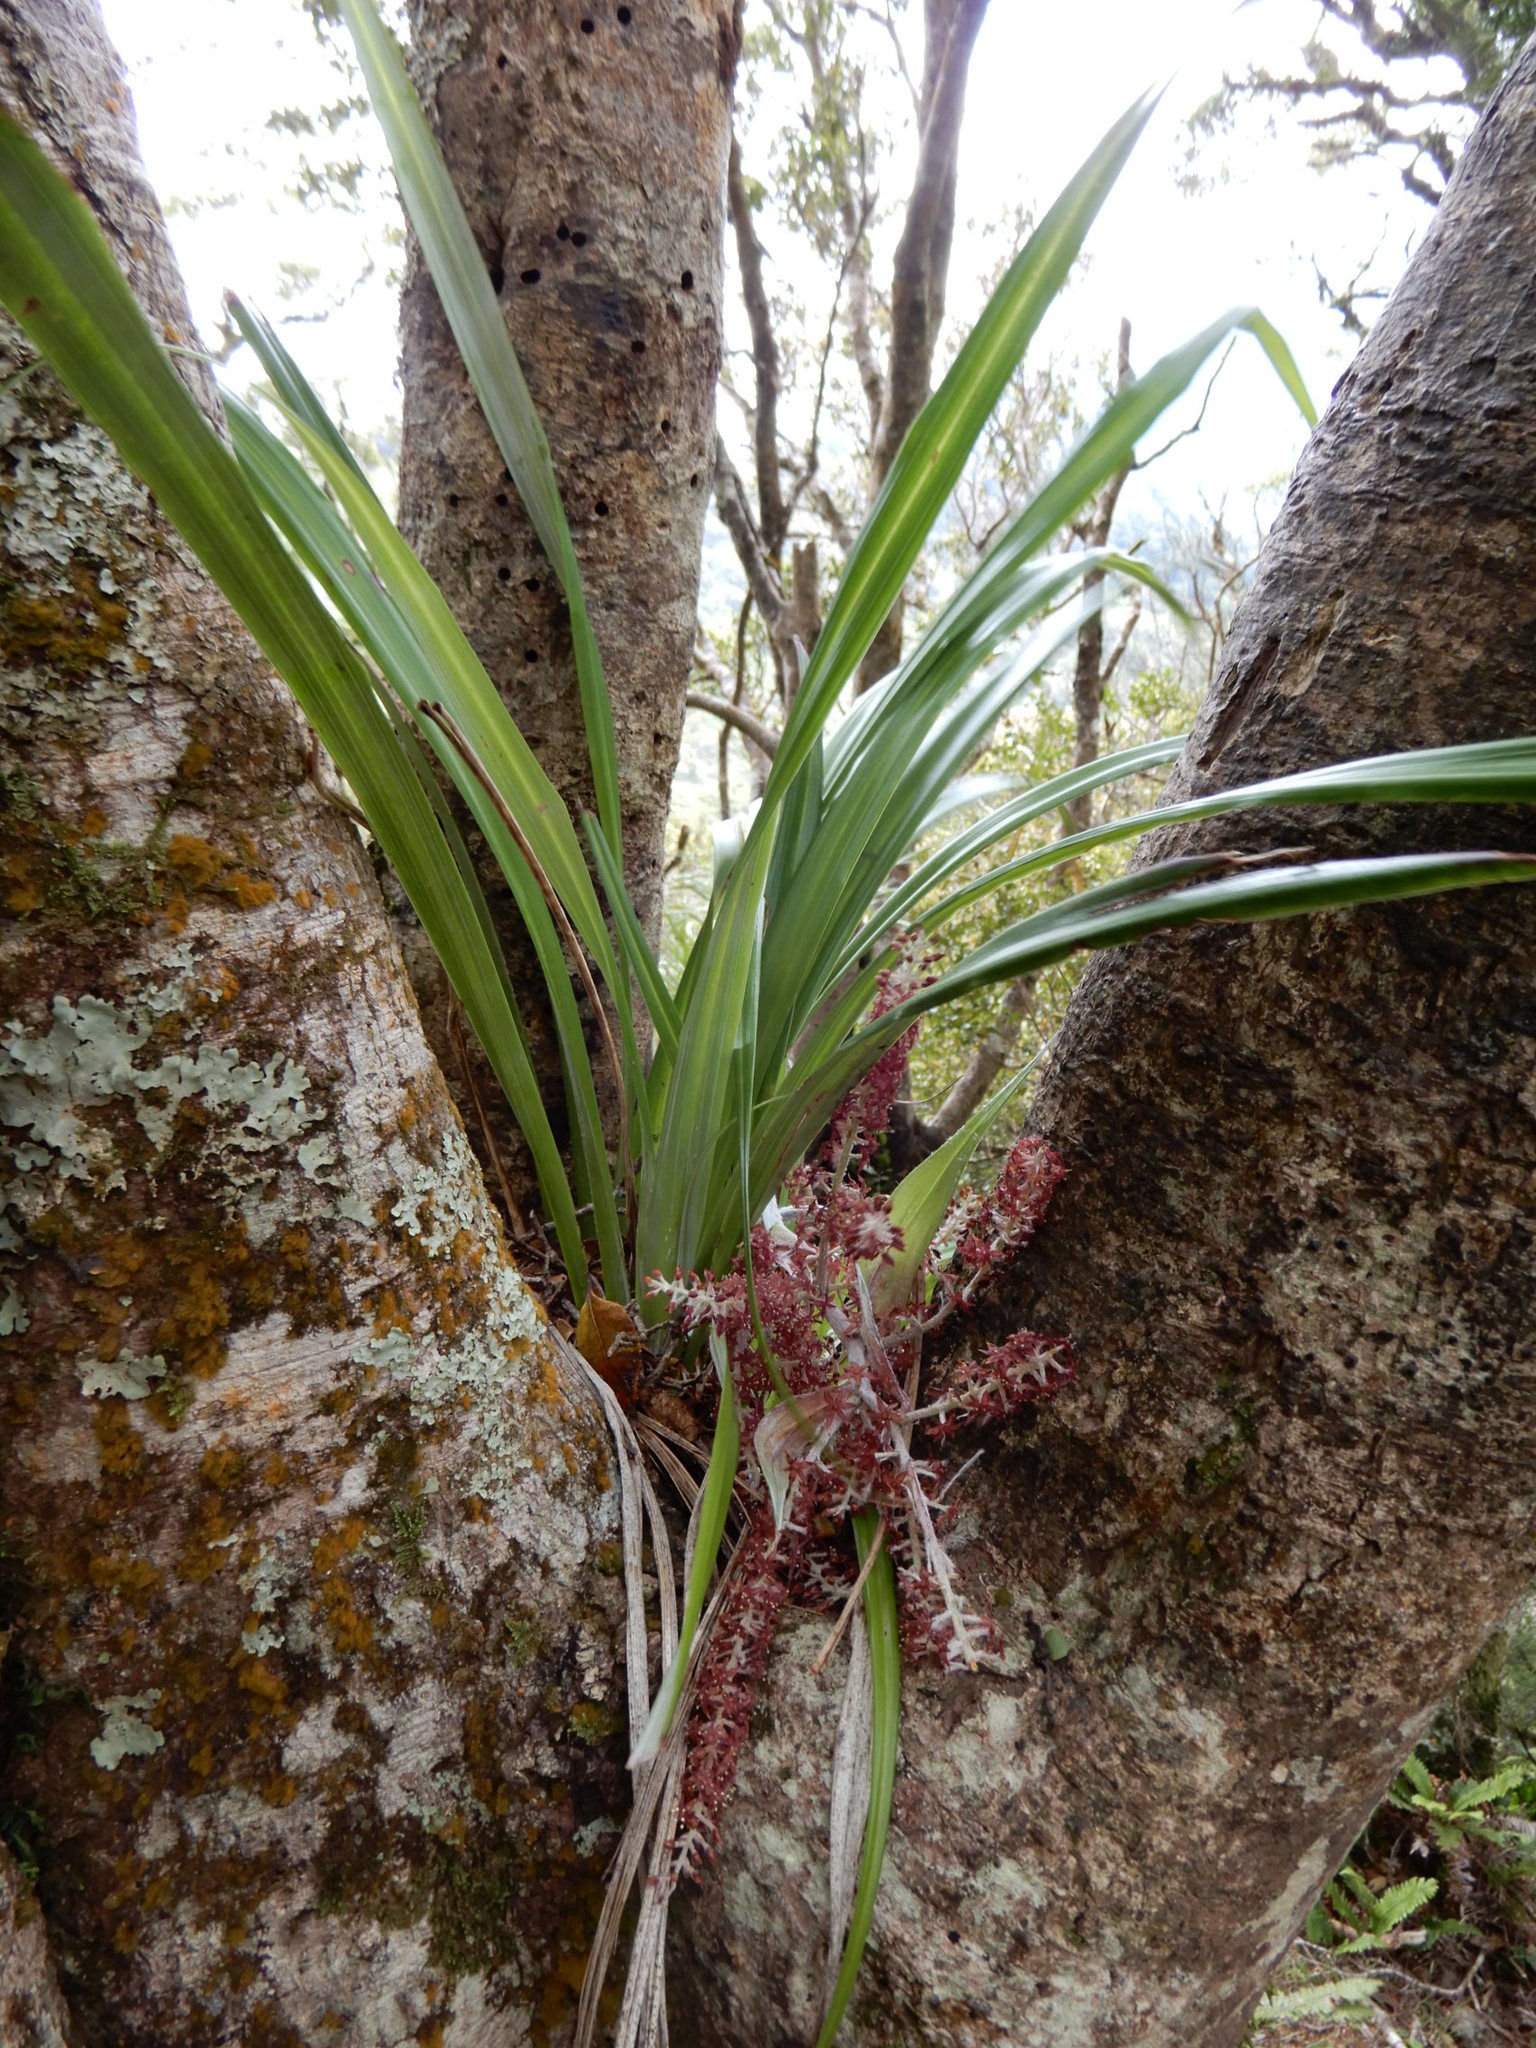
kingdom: Plantae
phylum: Tracheophyta
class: Liliopsida
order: Asparagales
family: Asteliaceae
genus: Astelia
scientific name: Astelia solandri
